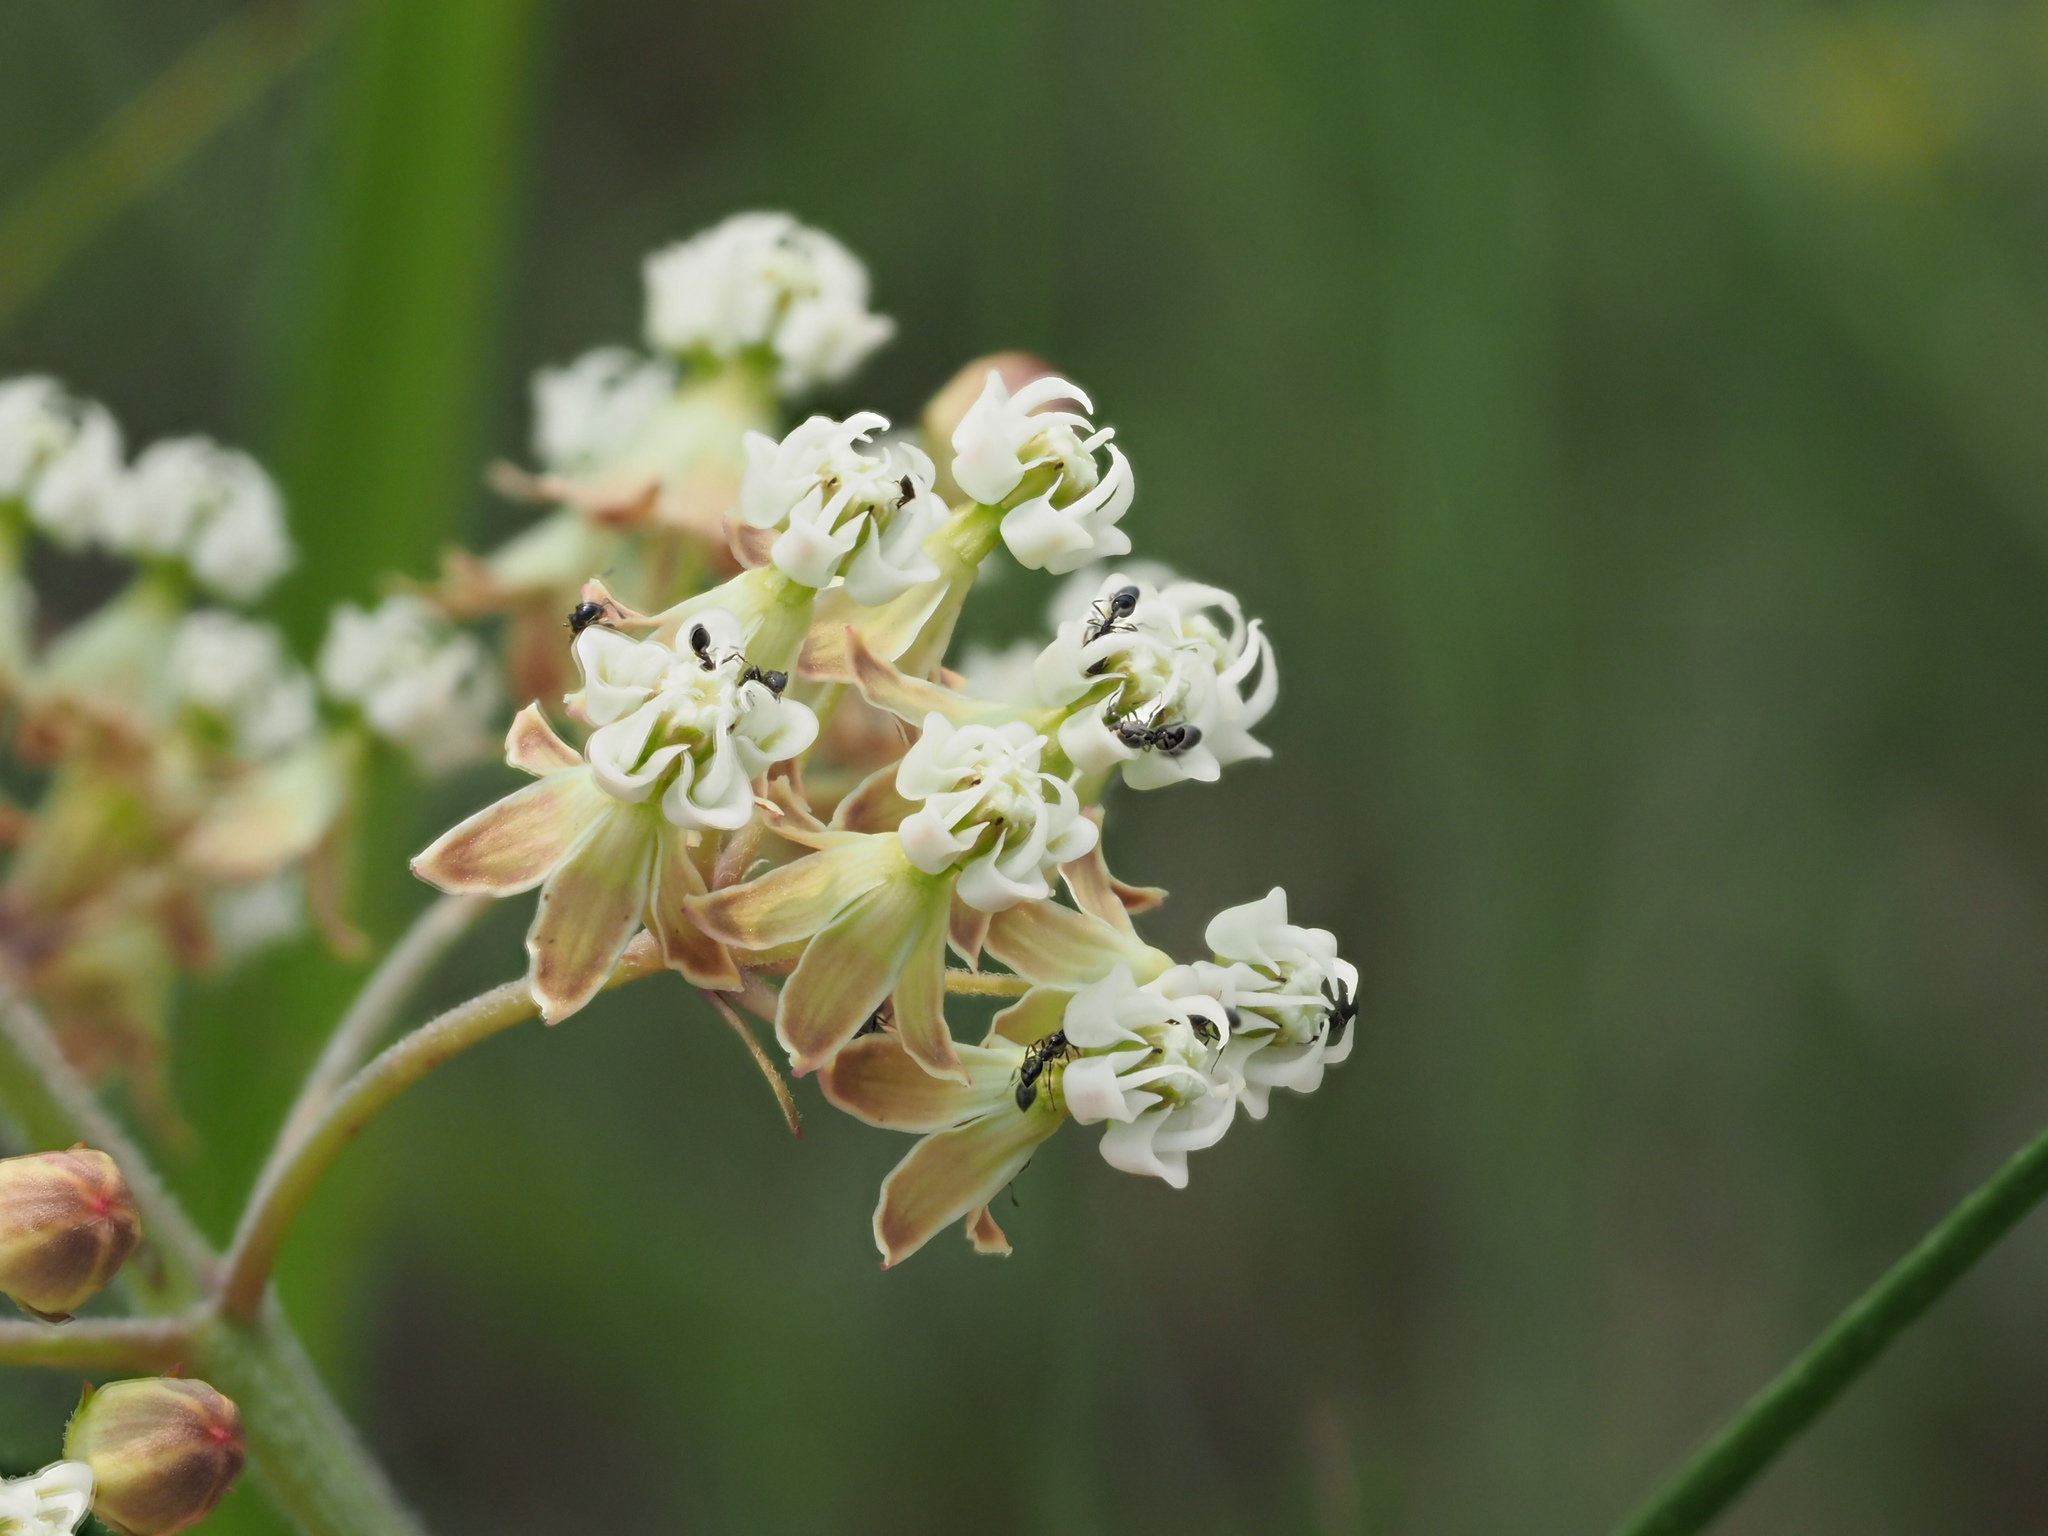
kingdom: Plantae
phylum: Tracheophyta
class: Magnoliopsida
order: Gentianales
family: Apocynaceae
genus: Asclepias
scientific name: Asclepias verticillata
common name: Eastern whorled milkweed
